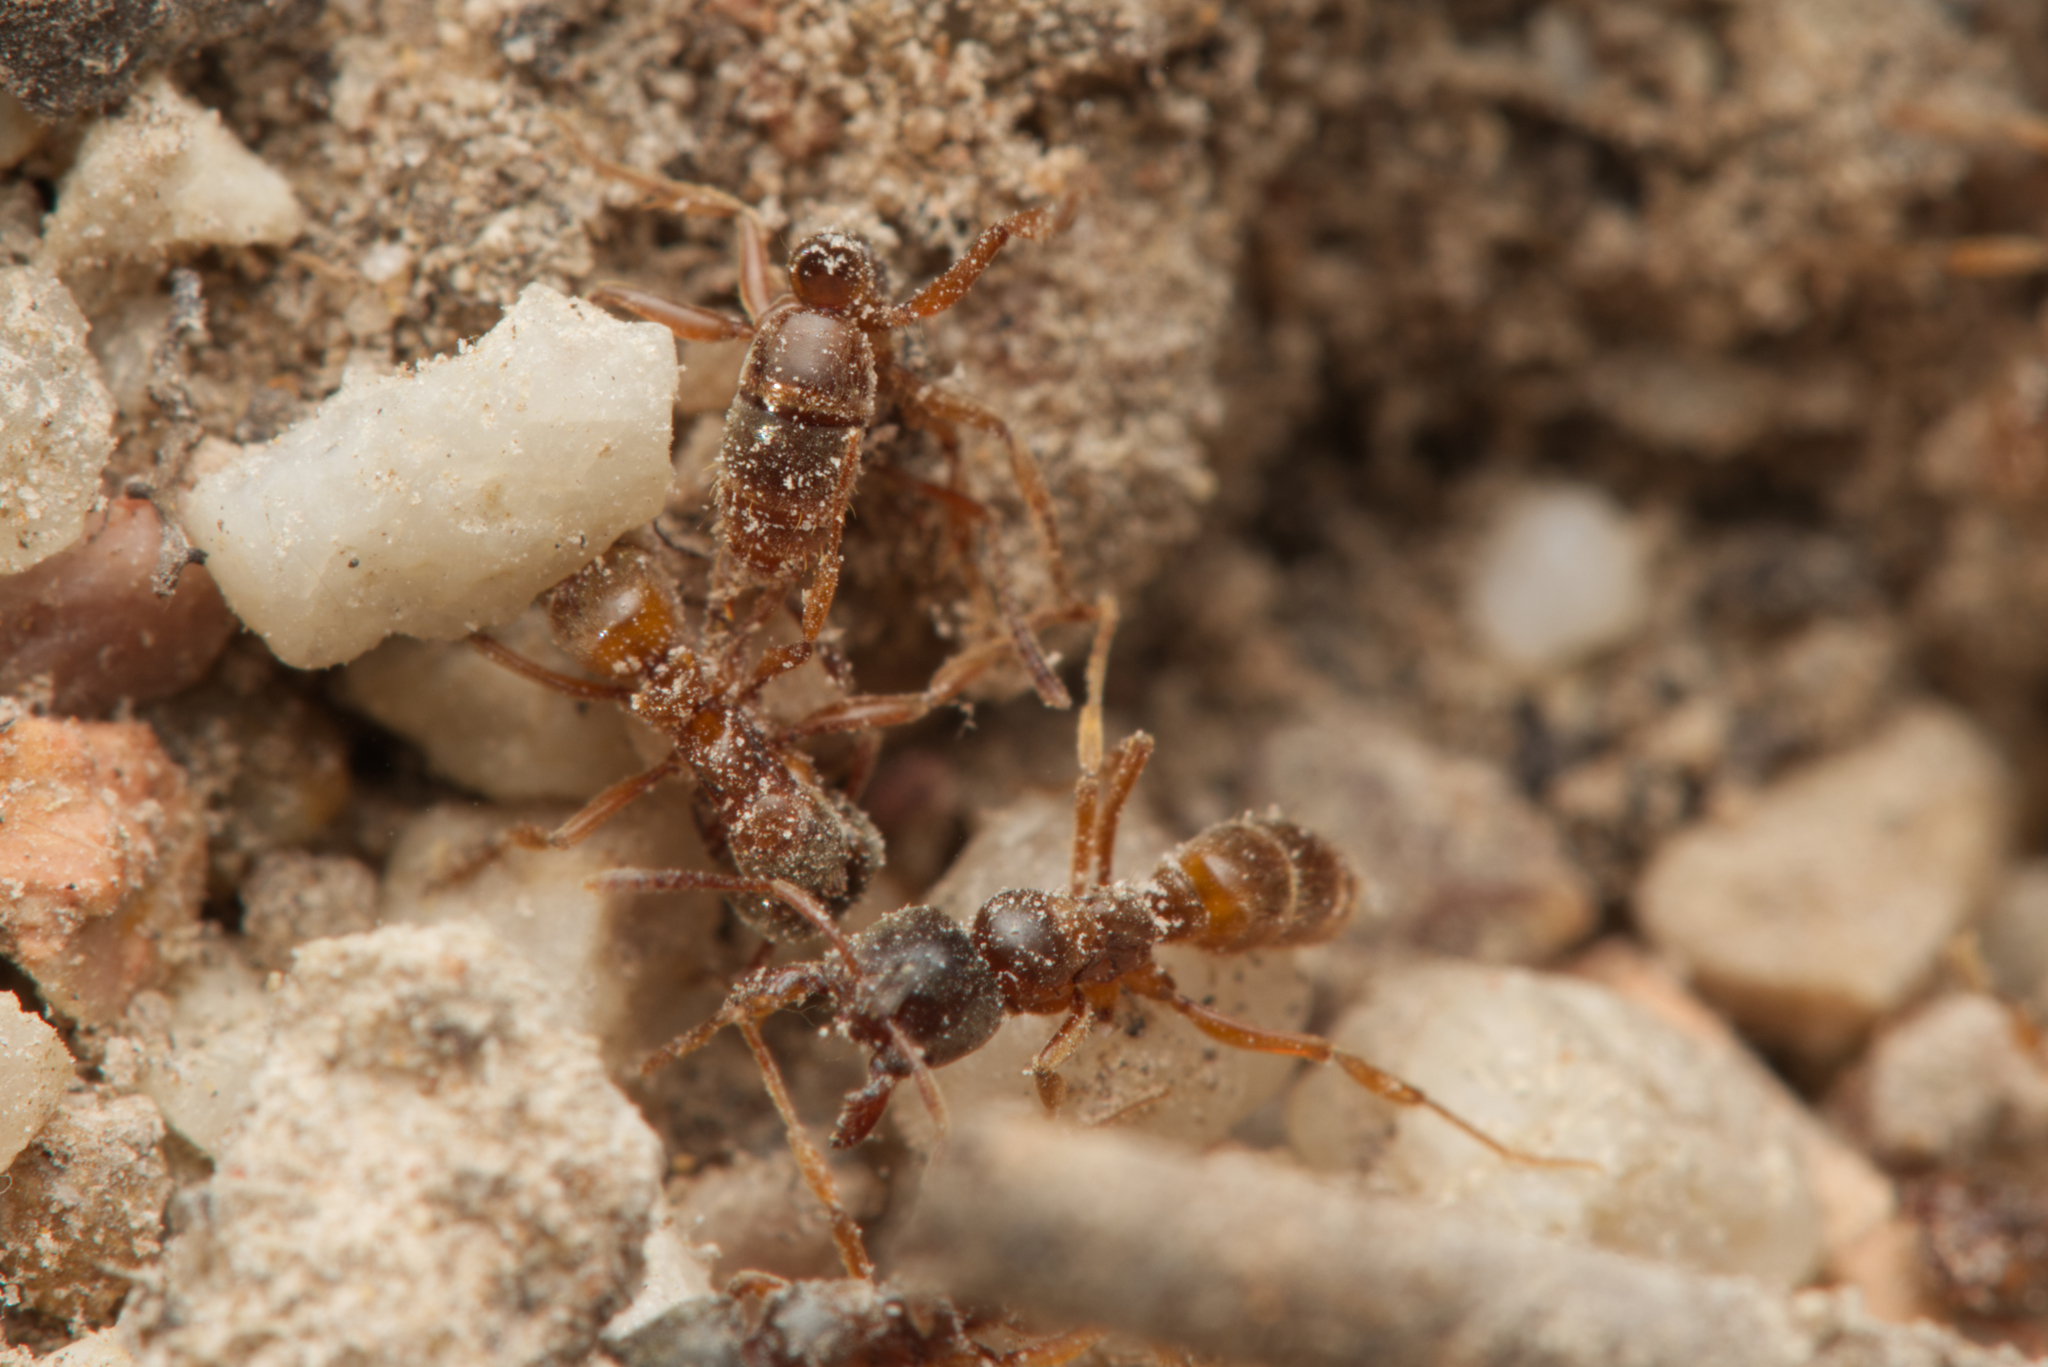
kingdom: Animalia
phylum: Arthropoda
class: Insecta
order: Hymenoptera
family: Formicidae
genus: Brachyponera
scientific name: Brachyponera
